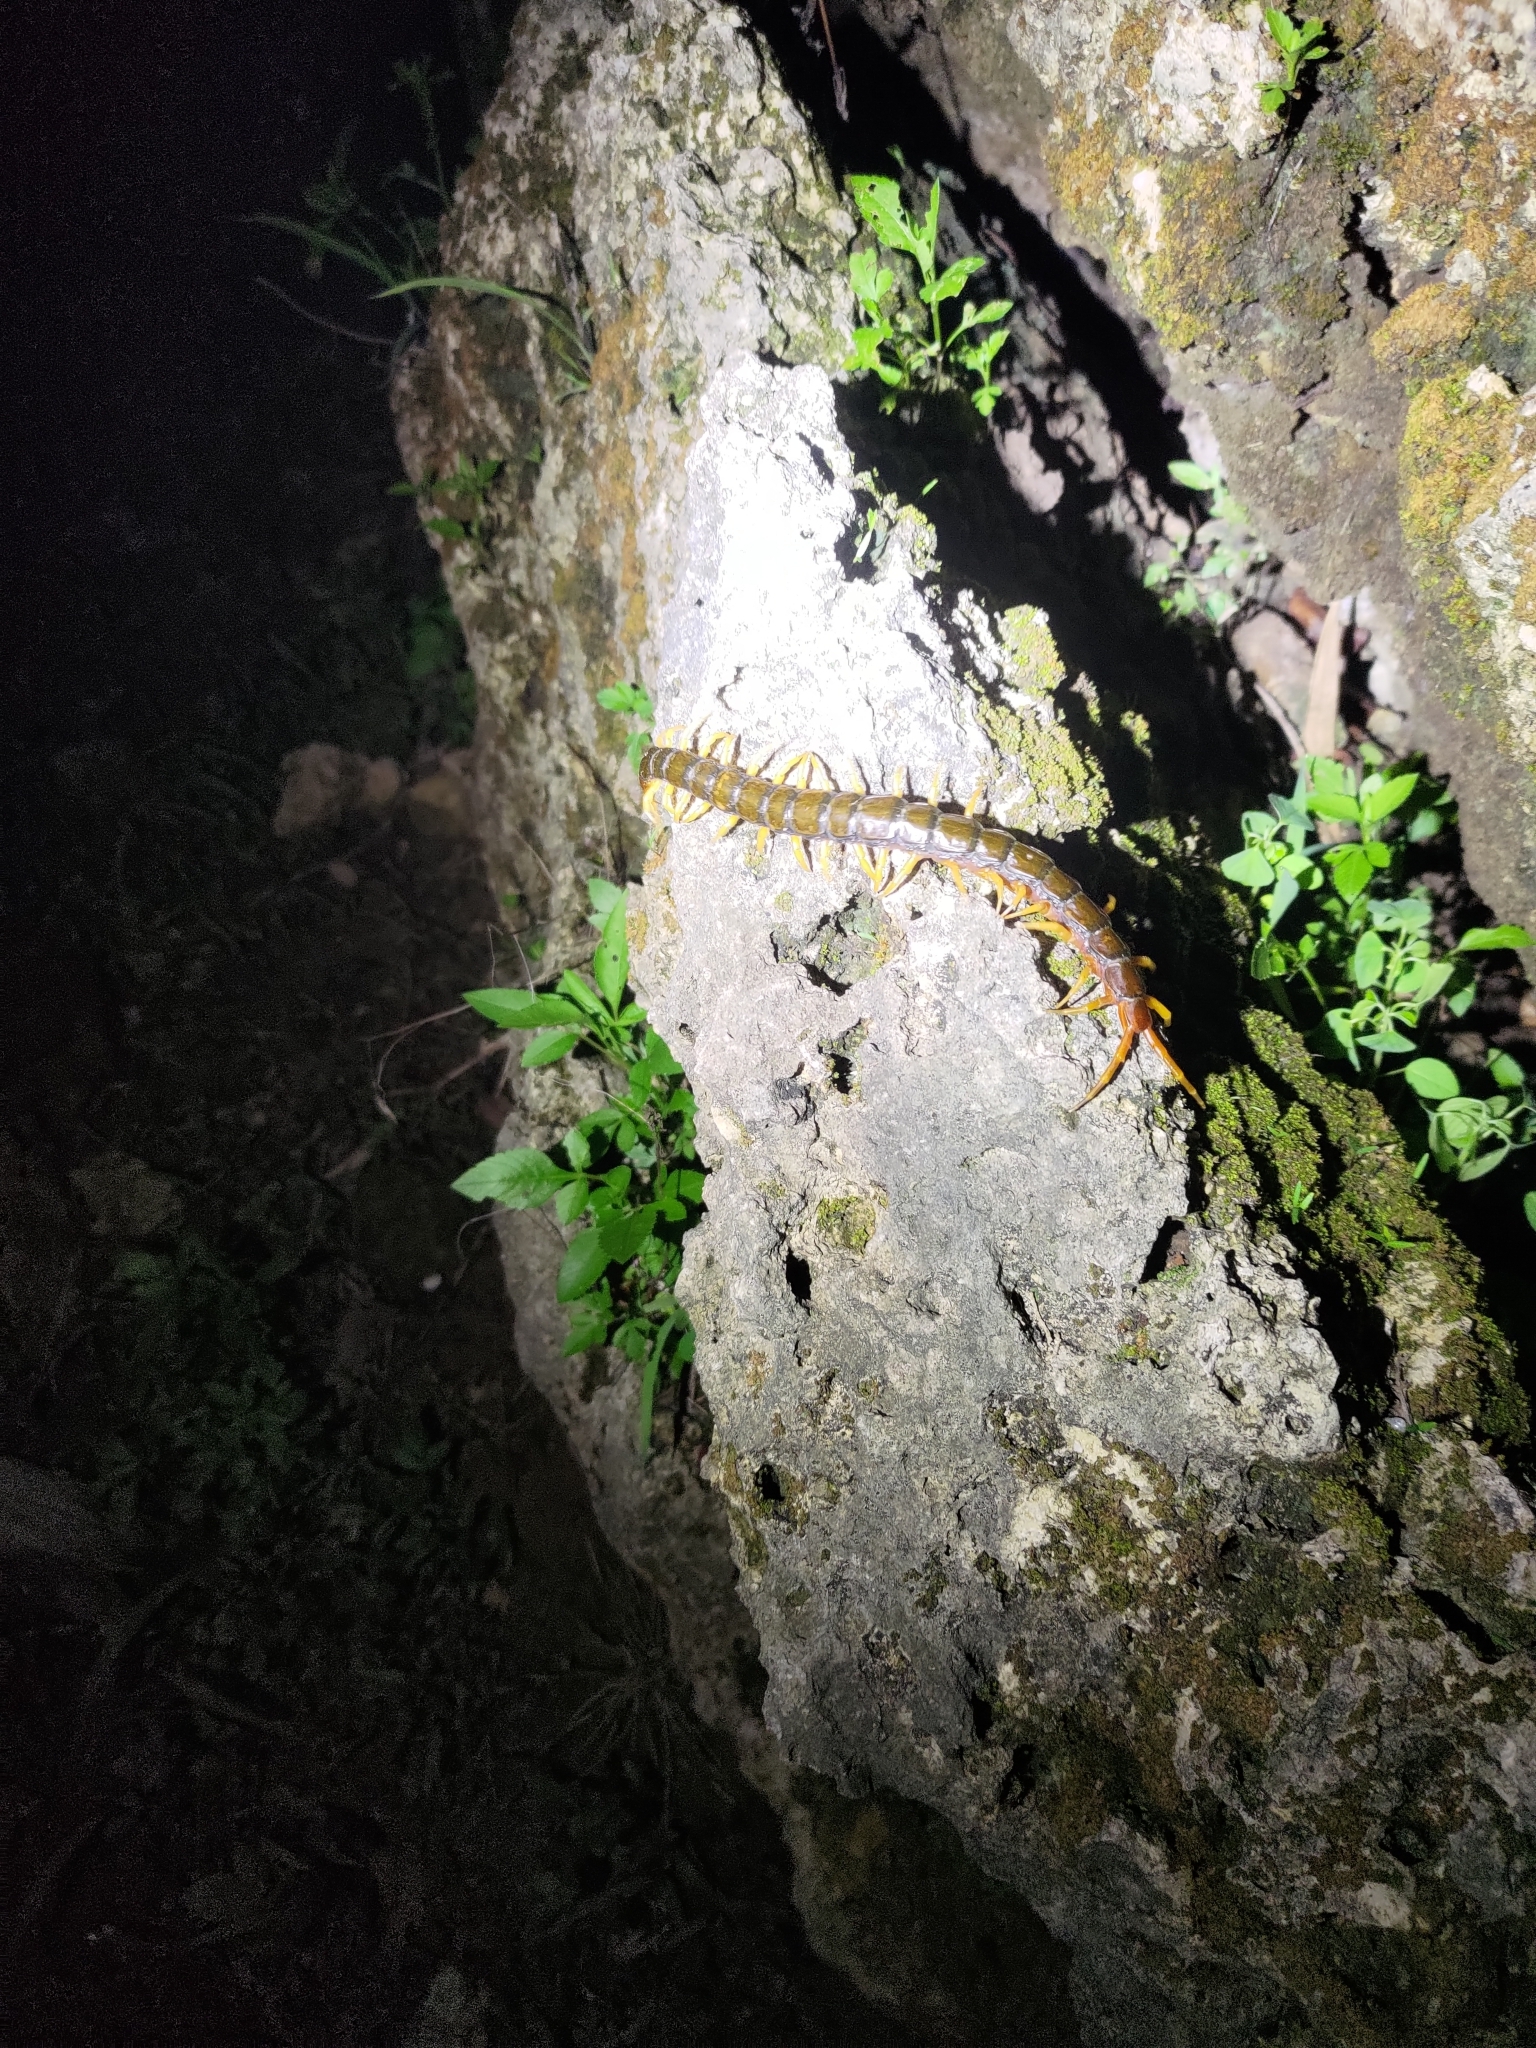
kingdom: Animalia
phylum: Arthropoda
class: Chilopoda
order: Scolopendromorpha
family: Scolopendridae
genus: Scolopendra
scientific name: Scolopendra mutilans
